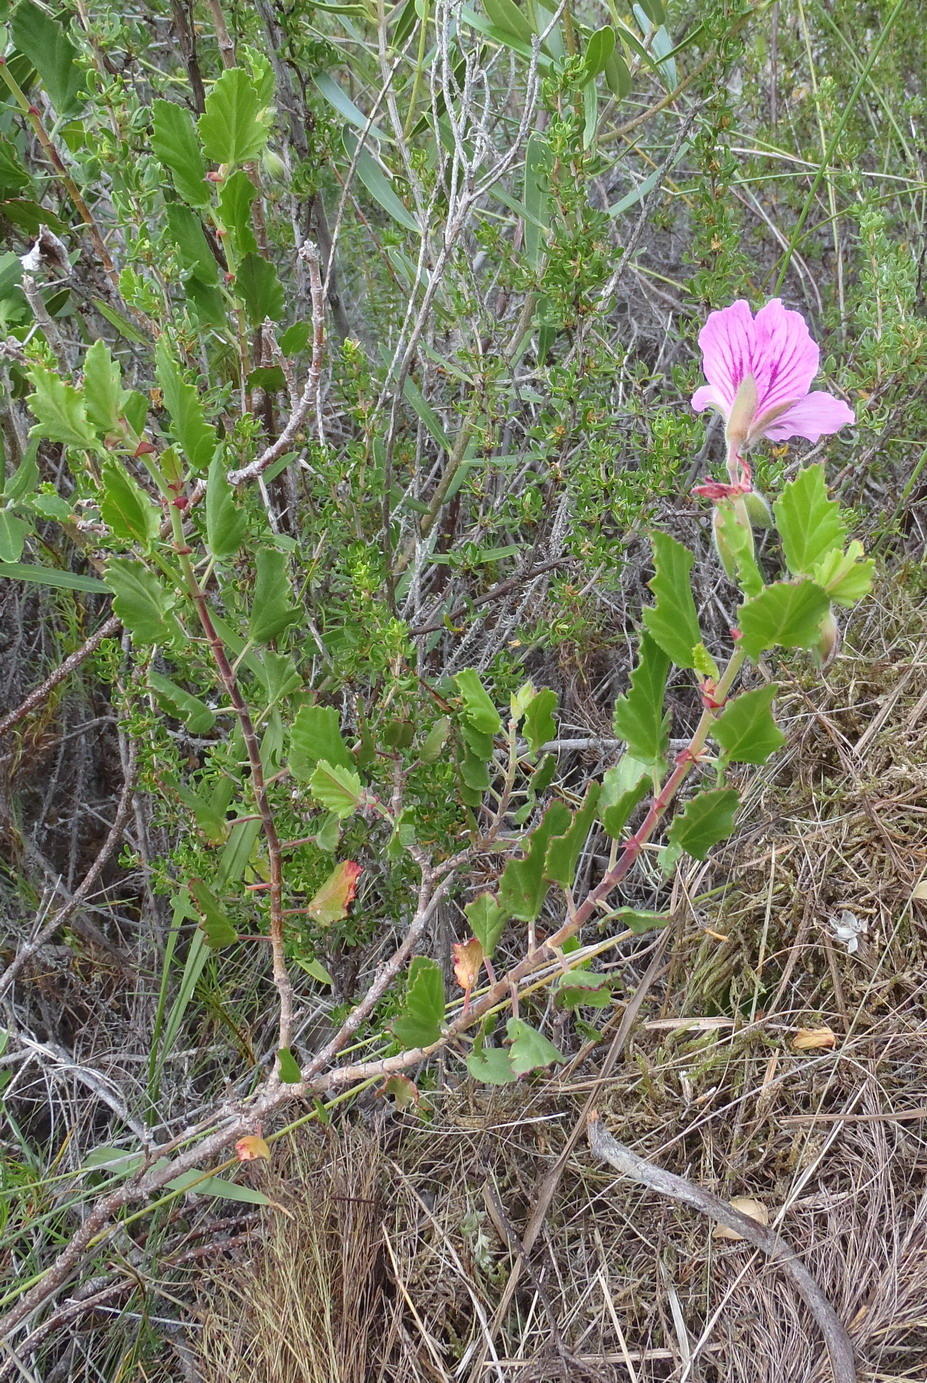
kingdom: Plantae
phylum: Tracheophyta
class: Magnoliopsida
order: Geraniales
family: Geraniaceae
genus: Pelargonium
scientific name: Pelargonium betulinum
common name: Birch-leaf pelargonium
